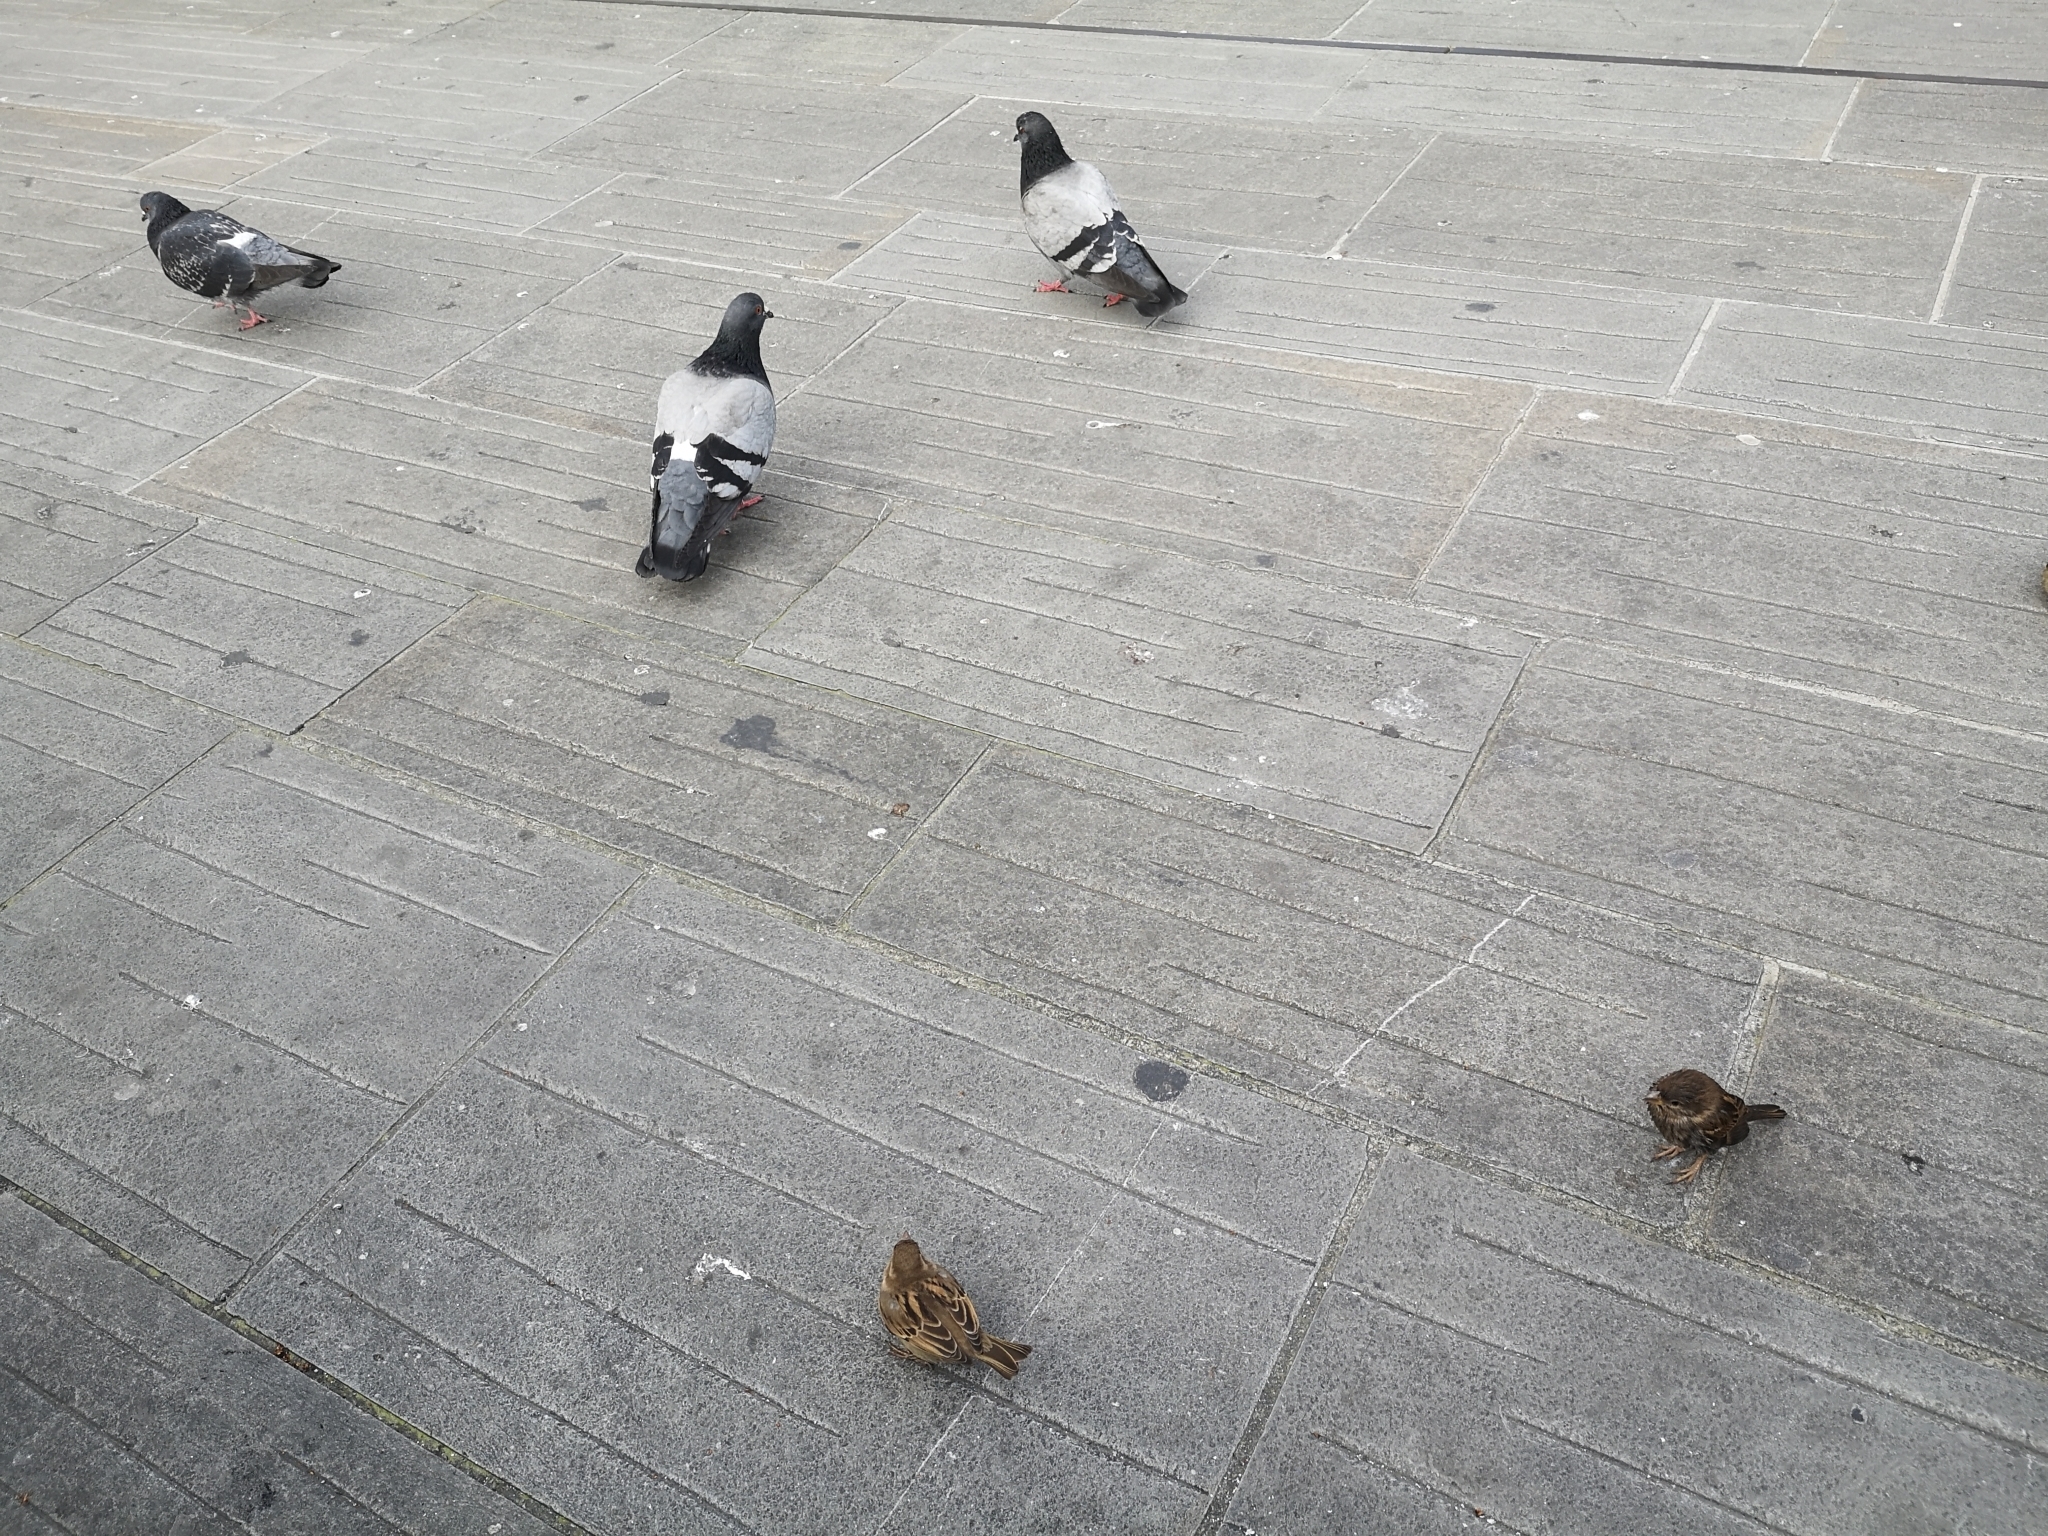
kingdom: Animalia
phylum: Chordata
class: Aves
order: Columbiformes
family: Columbidae
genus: Columba
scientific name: Columba livia
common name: Rock pigeon
